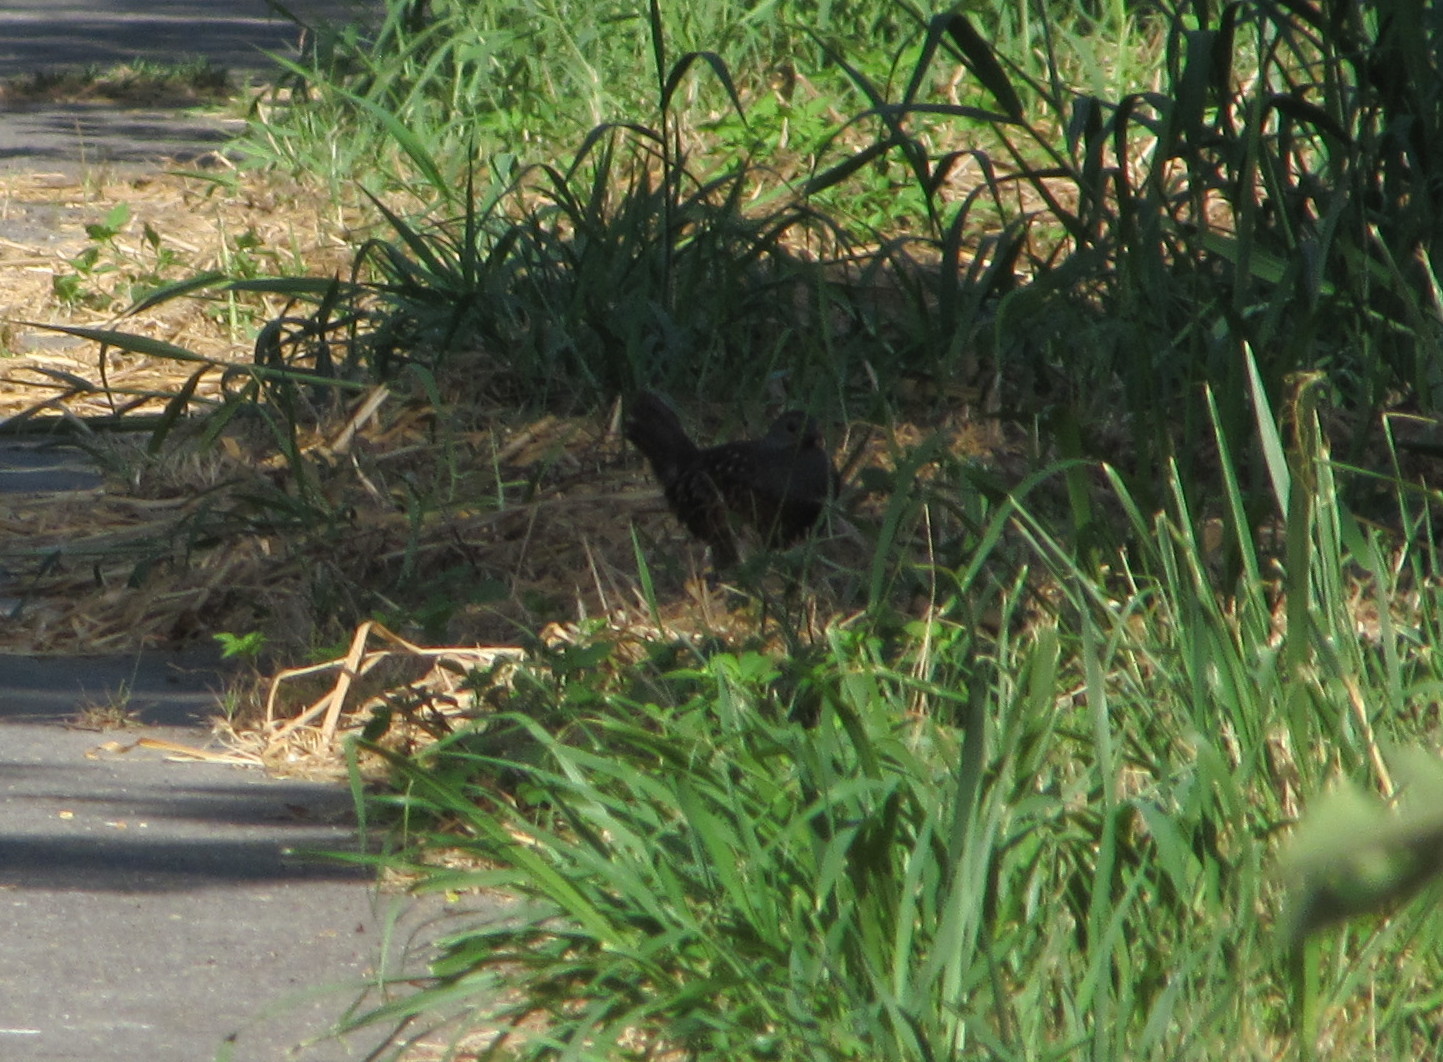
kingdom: Animalia
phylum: Chordata
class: Aves
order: Galliformes
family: Phasianidae
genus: Bambusicola
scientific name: Bambusicola sonorivox
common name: Taiwan bamboo-partridge
